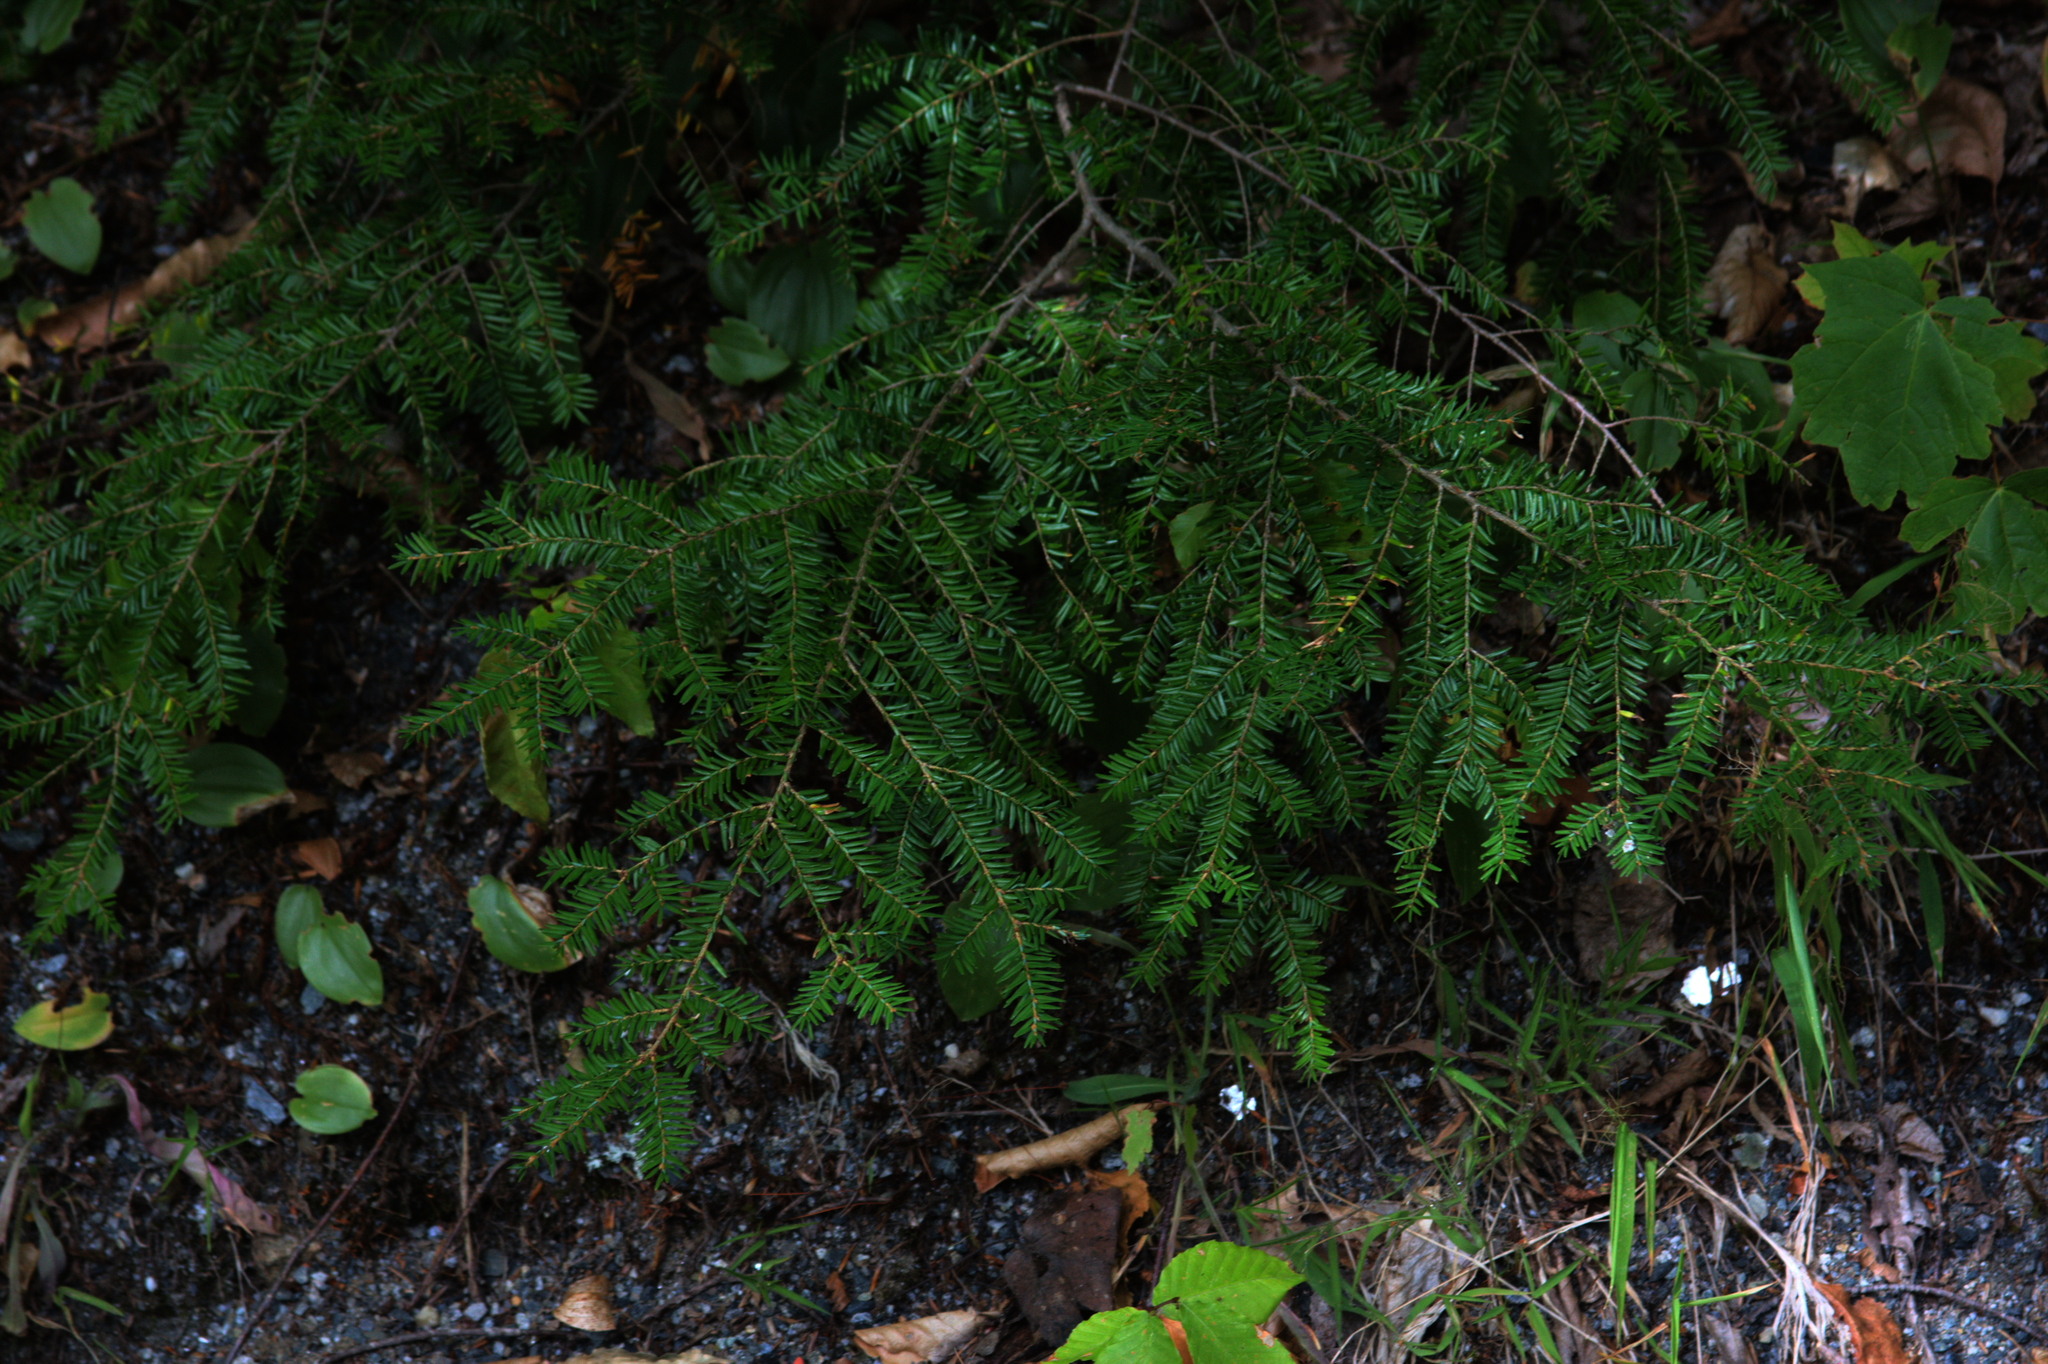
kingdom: Plantae
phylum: Tracheophyta
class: Pinopsida
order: Pinales
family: Pinaceae
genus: Tsuga
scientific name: Tsuga canadensis
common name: Eastern hemlock
